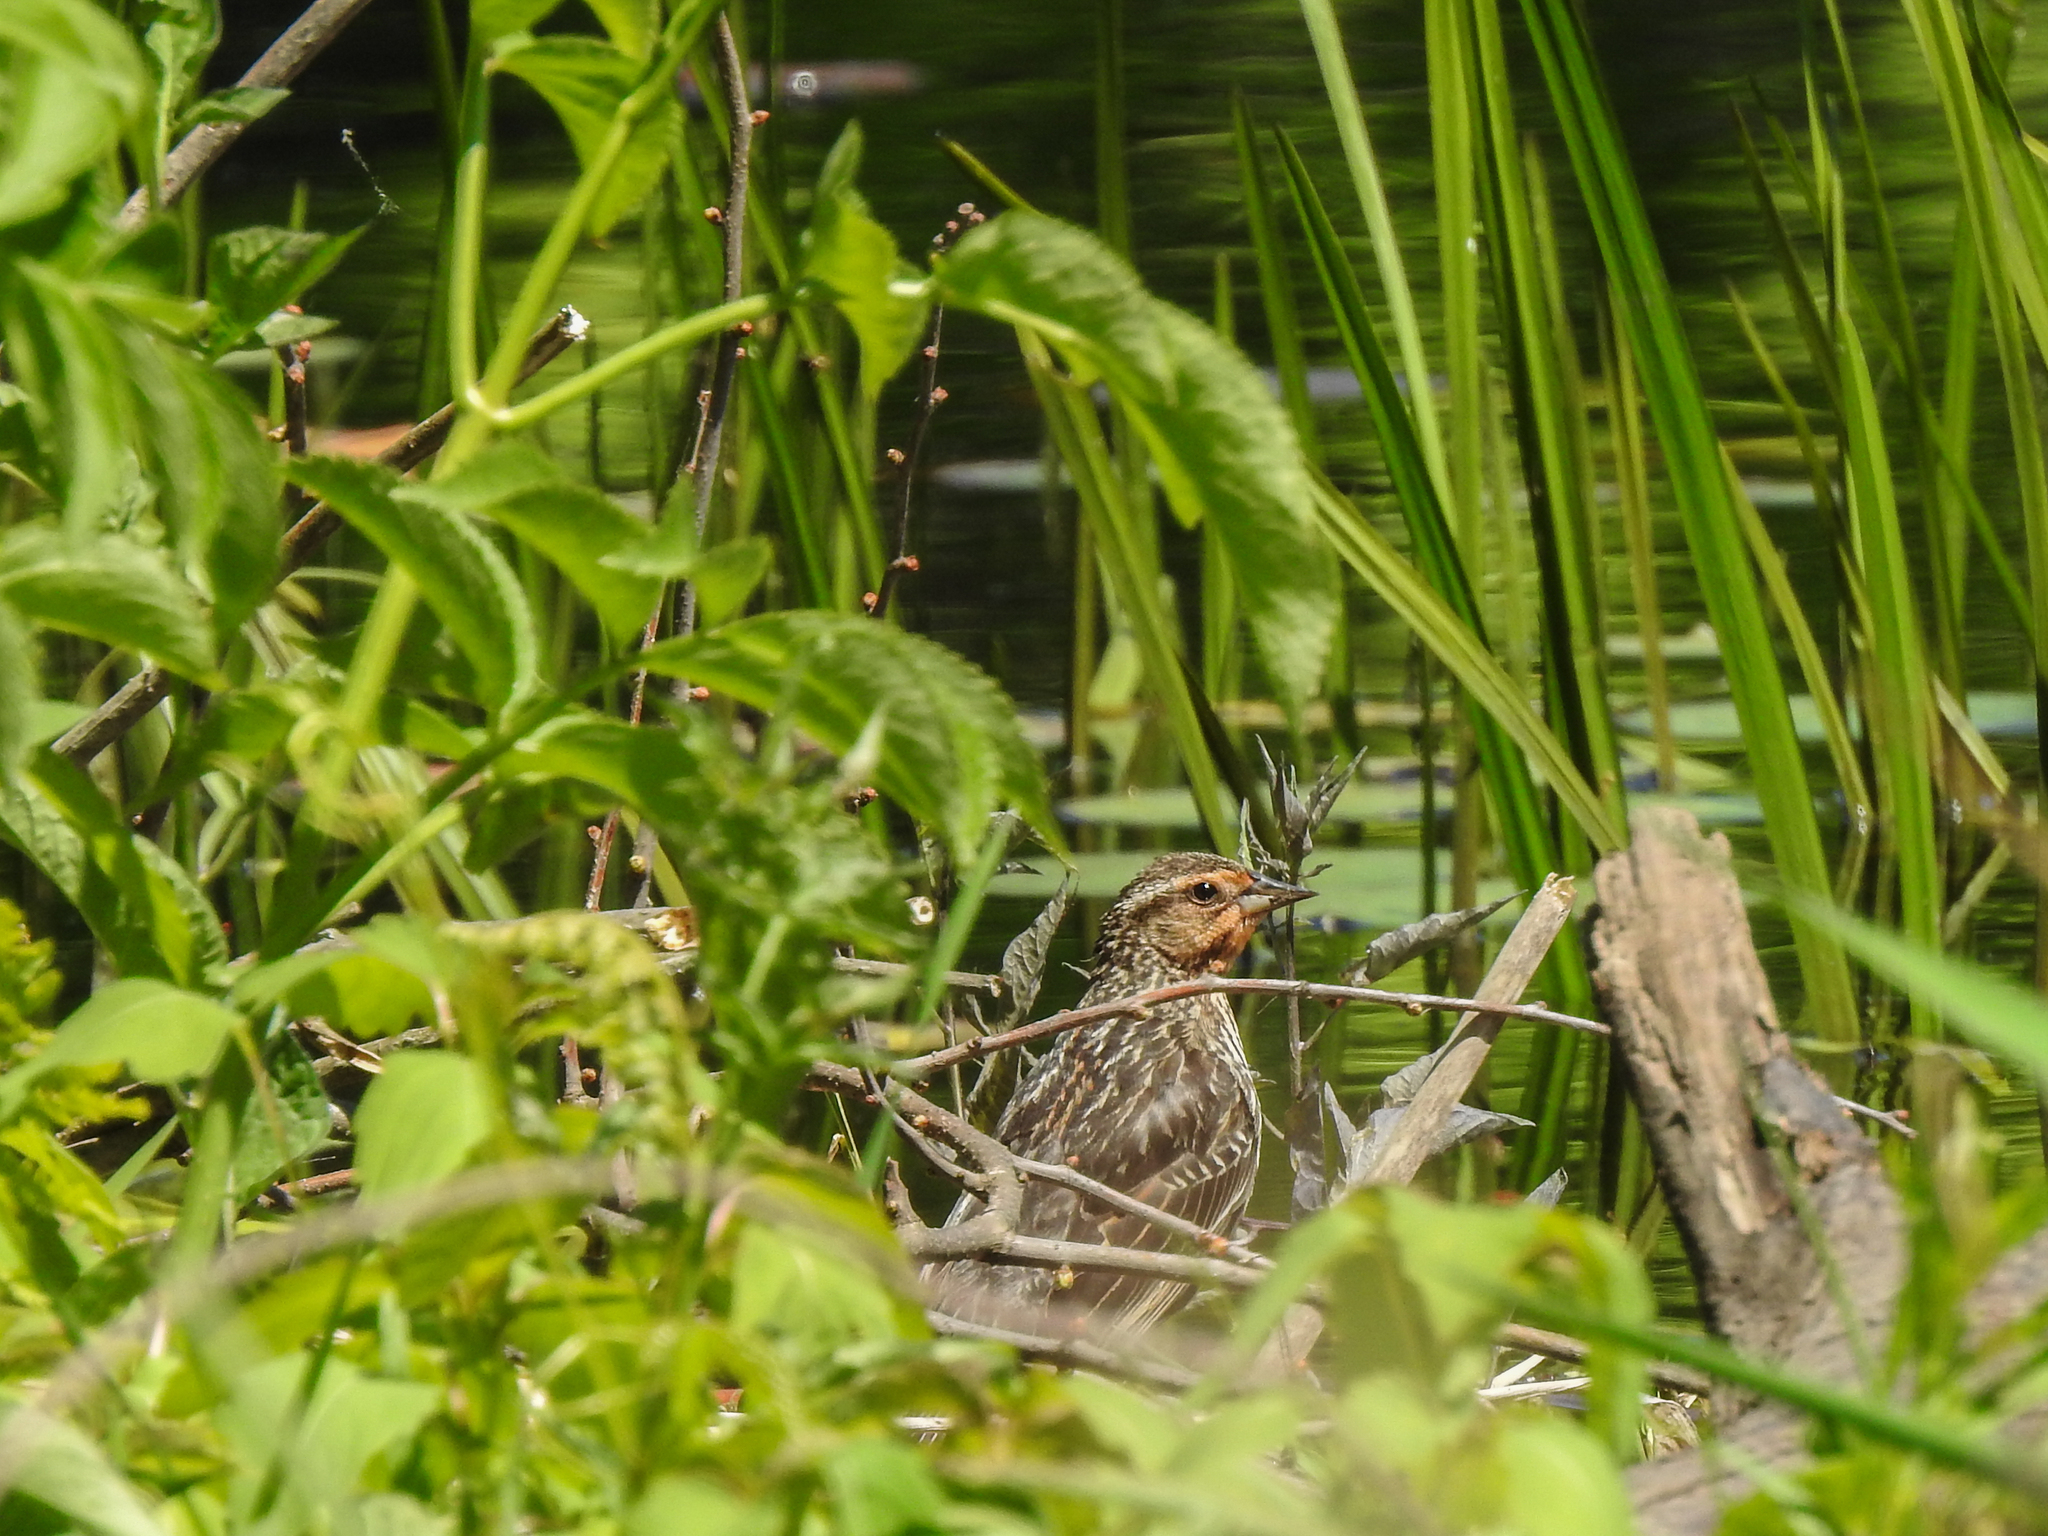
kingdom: Animalia
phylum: Chordata
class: Aves
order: Passeriformes
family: Icteridae
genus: Agelaius
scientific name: Agelaius phoeniceus
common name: Red-winged blackbird
